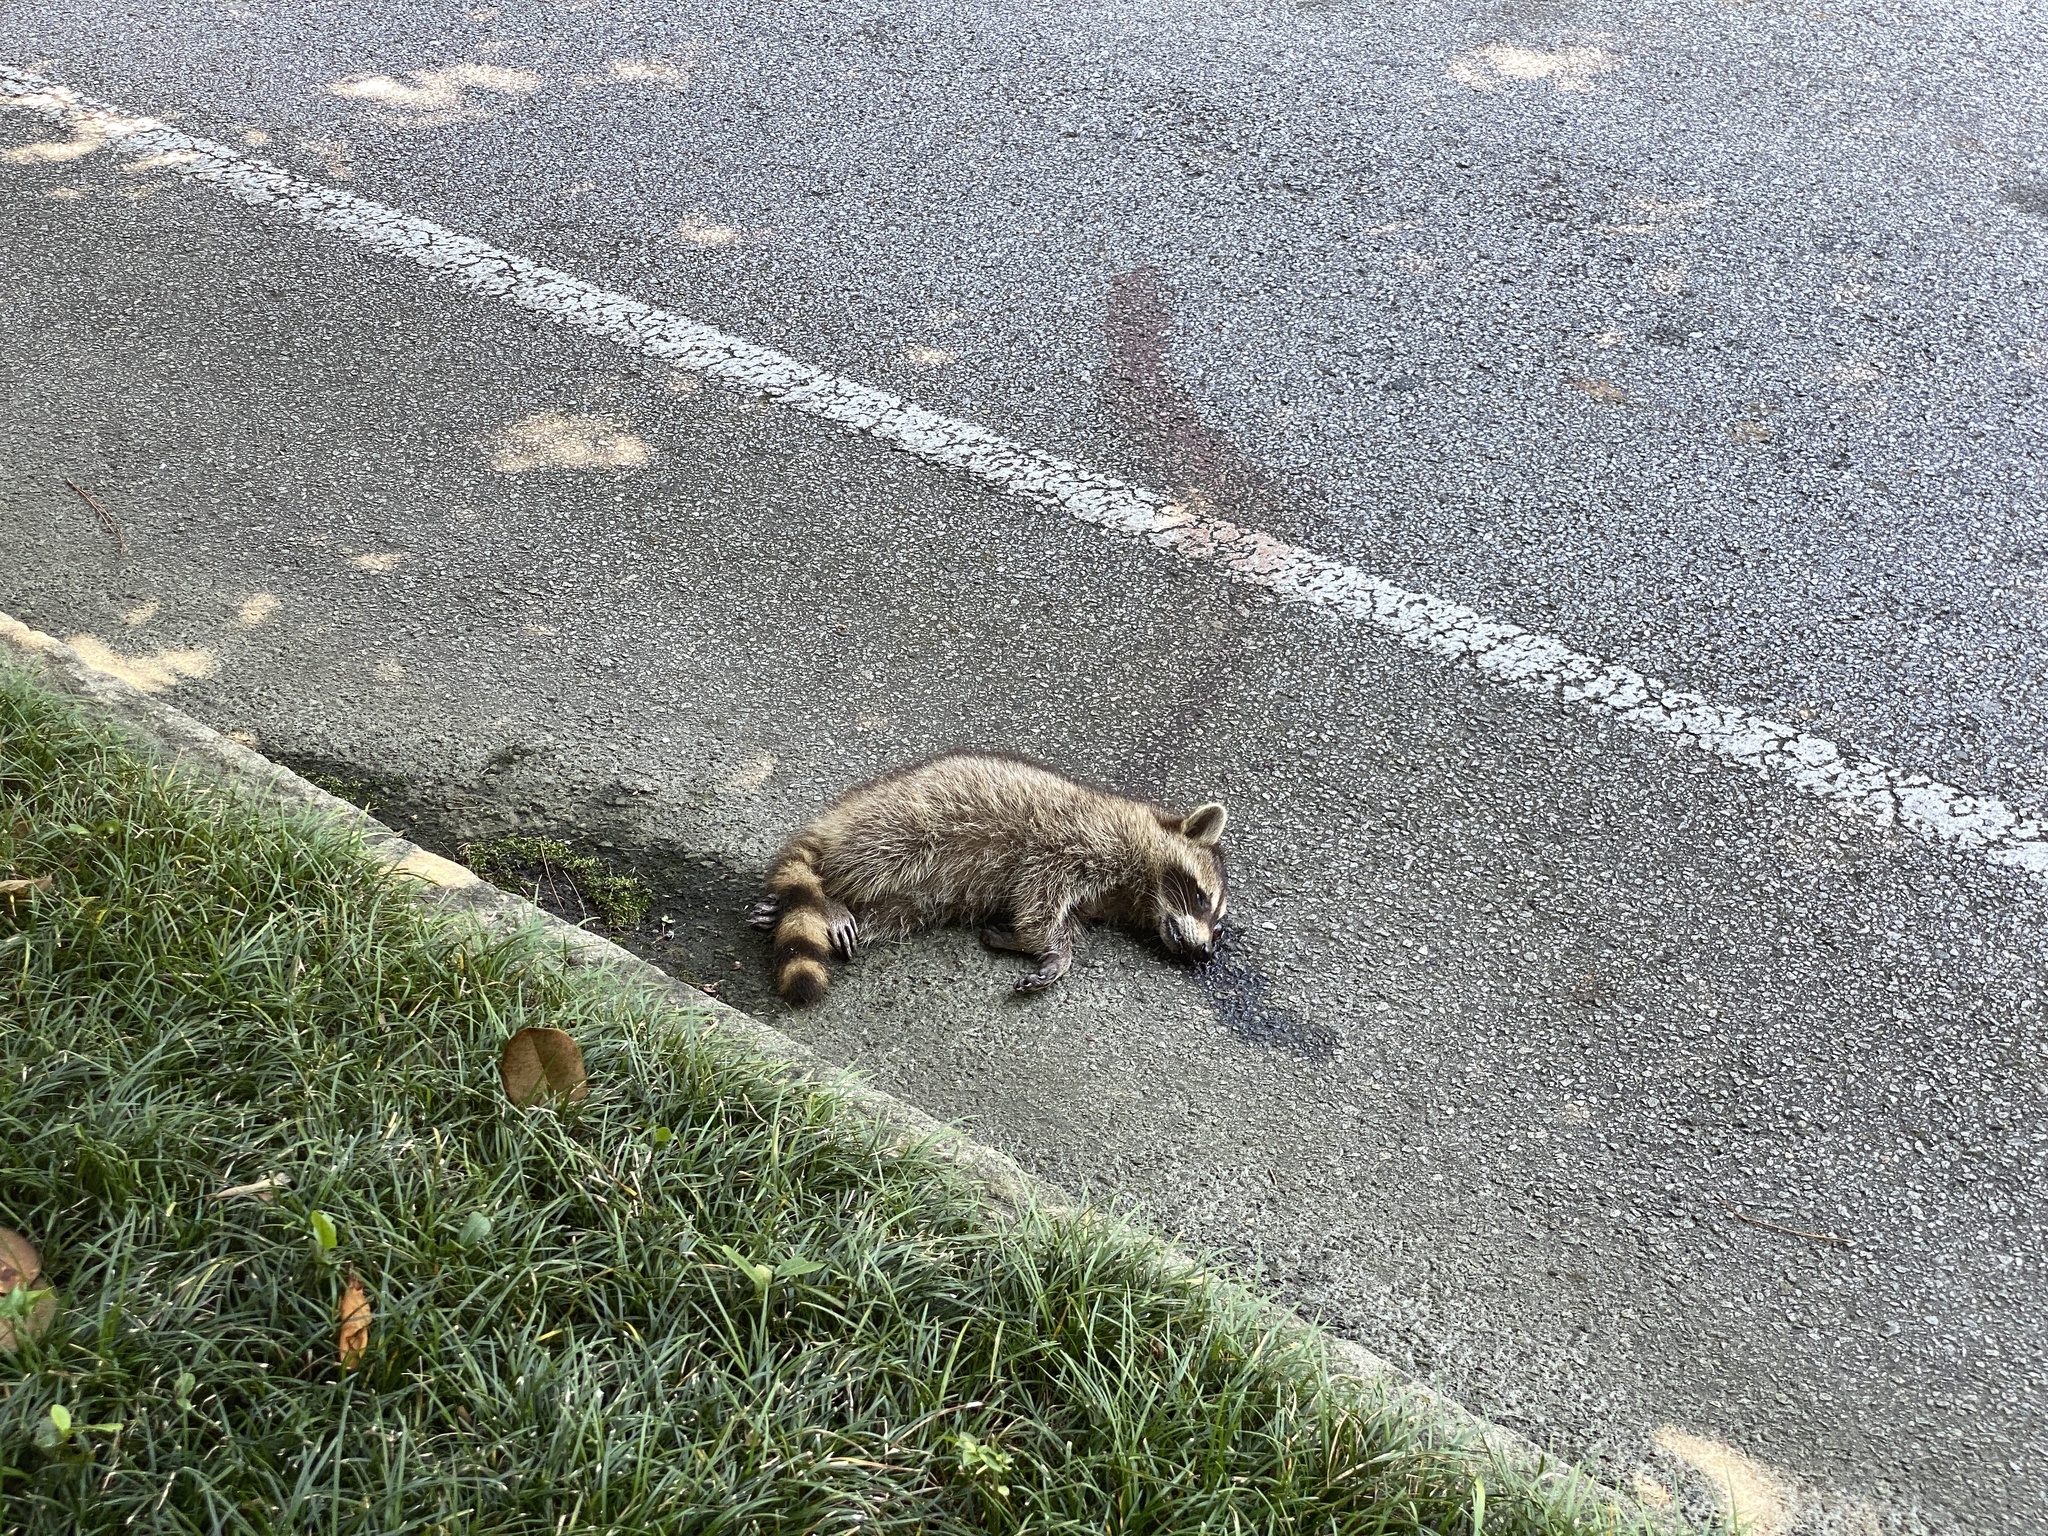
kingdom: Animalia
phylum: Chordata
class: Mammalia
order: Carnivora
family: Procyonidae
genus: Procyon
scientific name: Procyon lotor
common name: Raccoon
